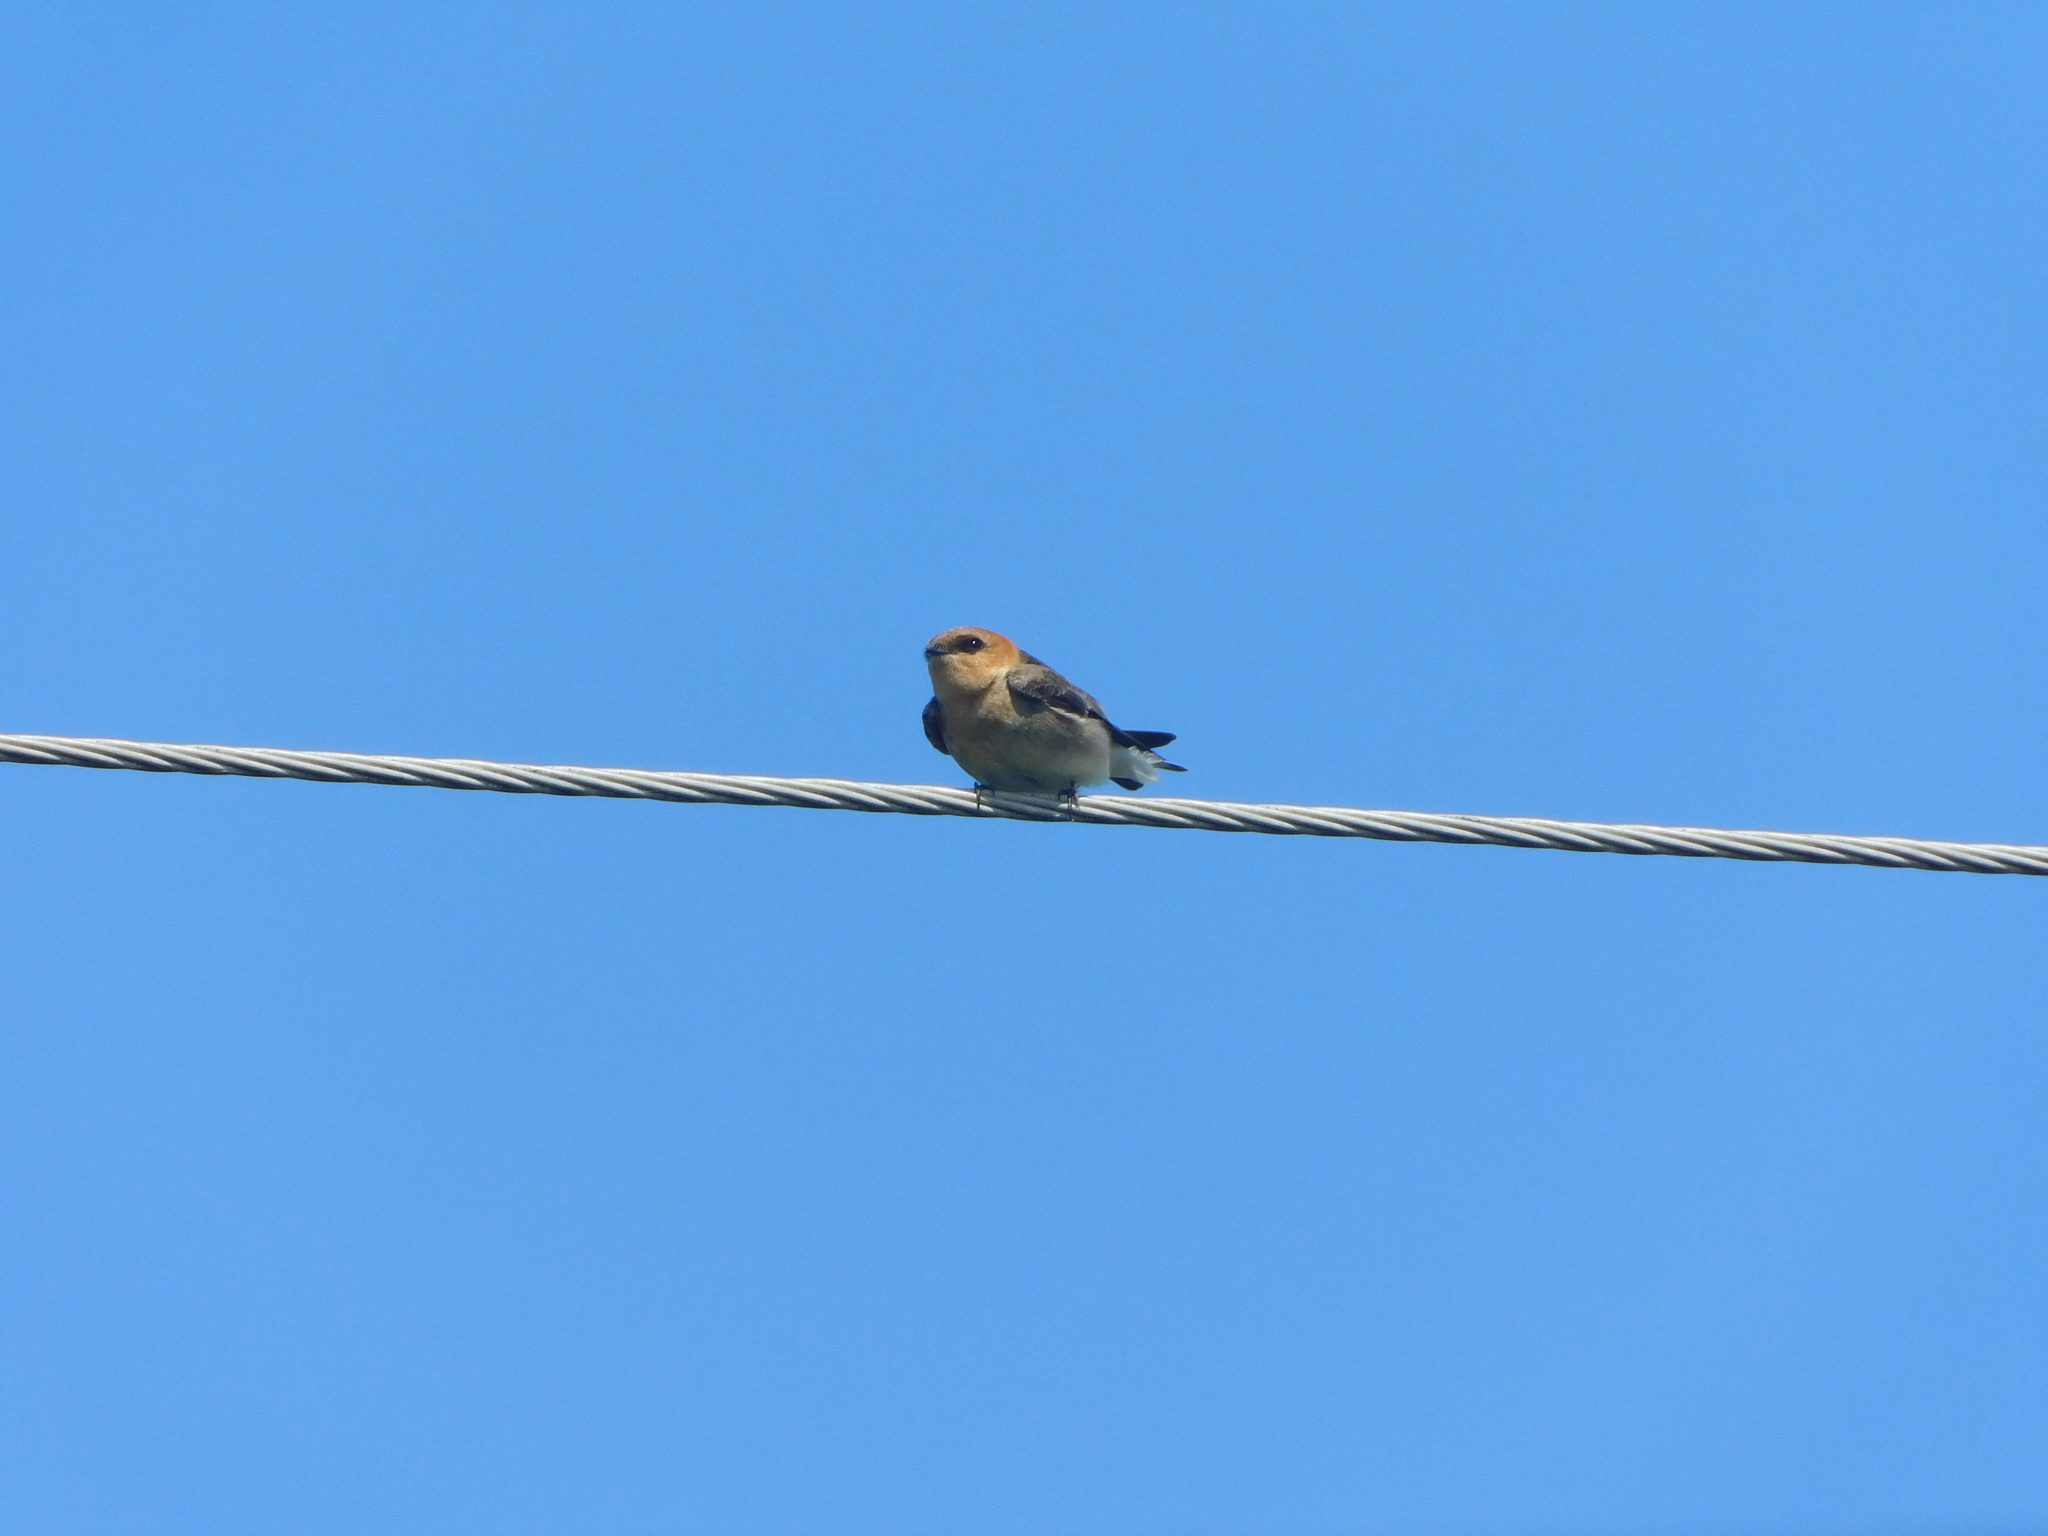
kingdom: Animalia
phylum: Chordata
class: Aves
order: Passeriformes
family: Hirundinidae
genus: Alopochelidon
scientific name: Alopochelidon fucata
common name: Tawny-headed swallow
